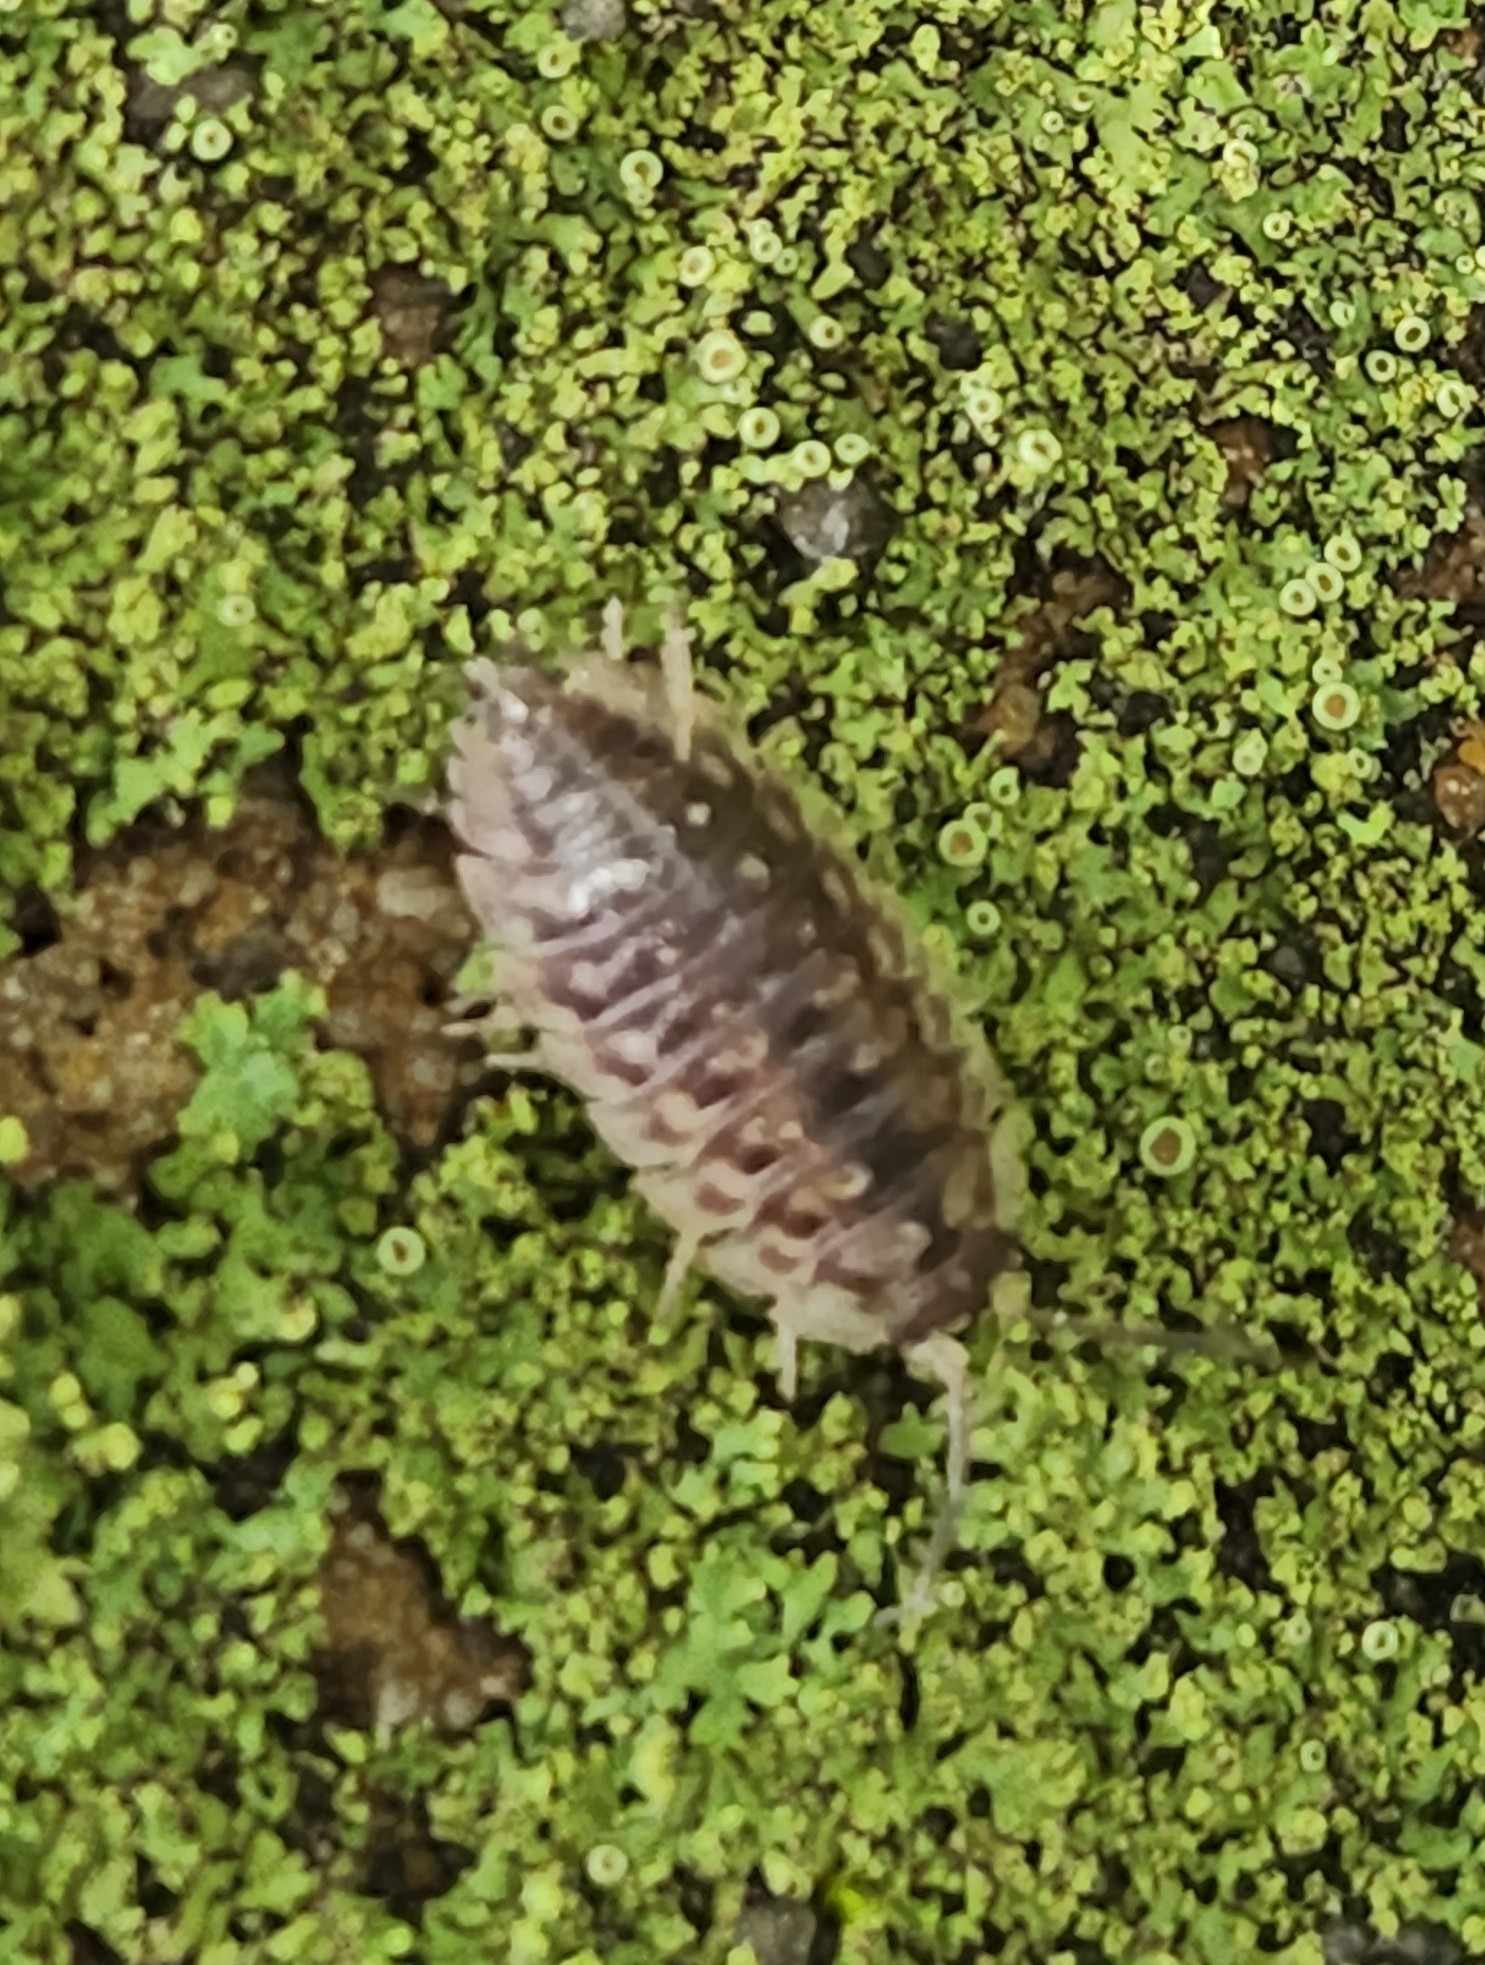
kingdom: Animalia
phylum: Arthropoda
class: Malacostraca
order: Isopoda
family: Oniscidae
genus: Oniscus
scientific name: Oniscus asellus
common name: Common shiny woodlouse
